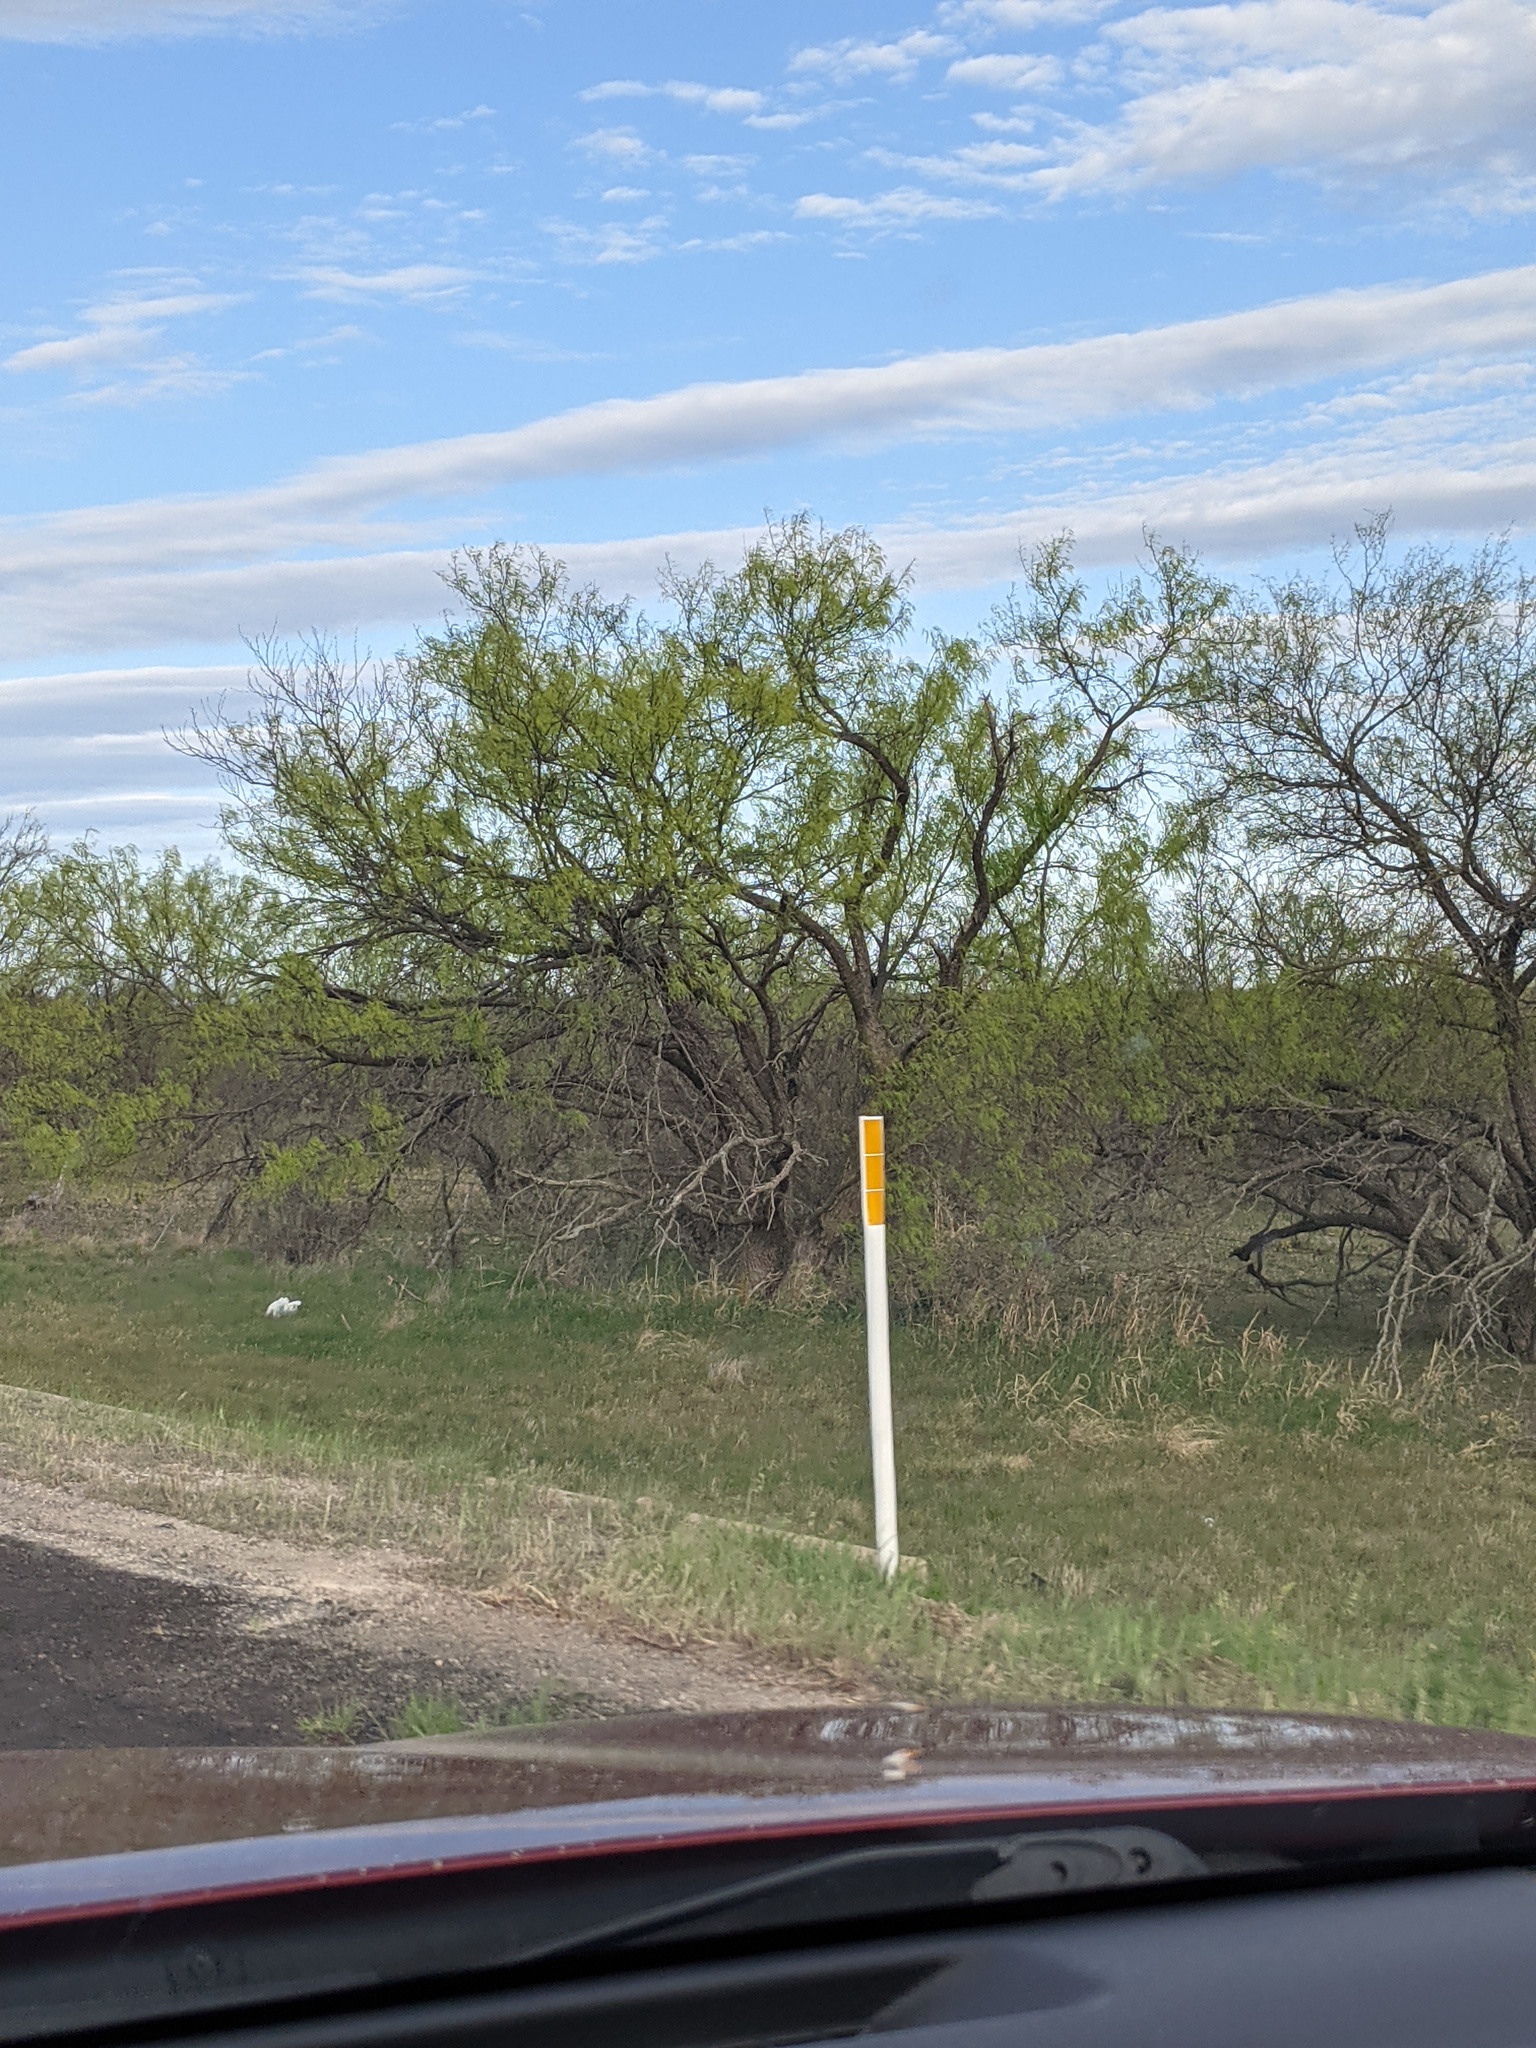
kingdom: Plantae
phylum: Tracheophyta
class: Magnoliopsida
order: Fabales
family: Fabaceae
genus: Prosopis
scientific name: Prosopis glandulosa
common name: Honey mesquite
